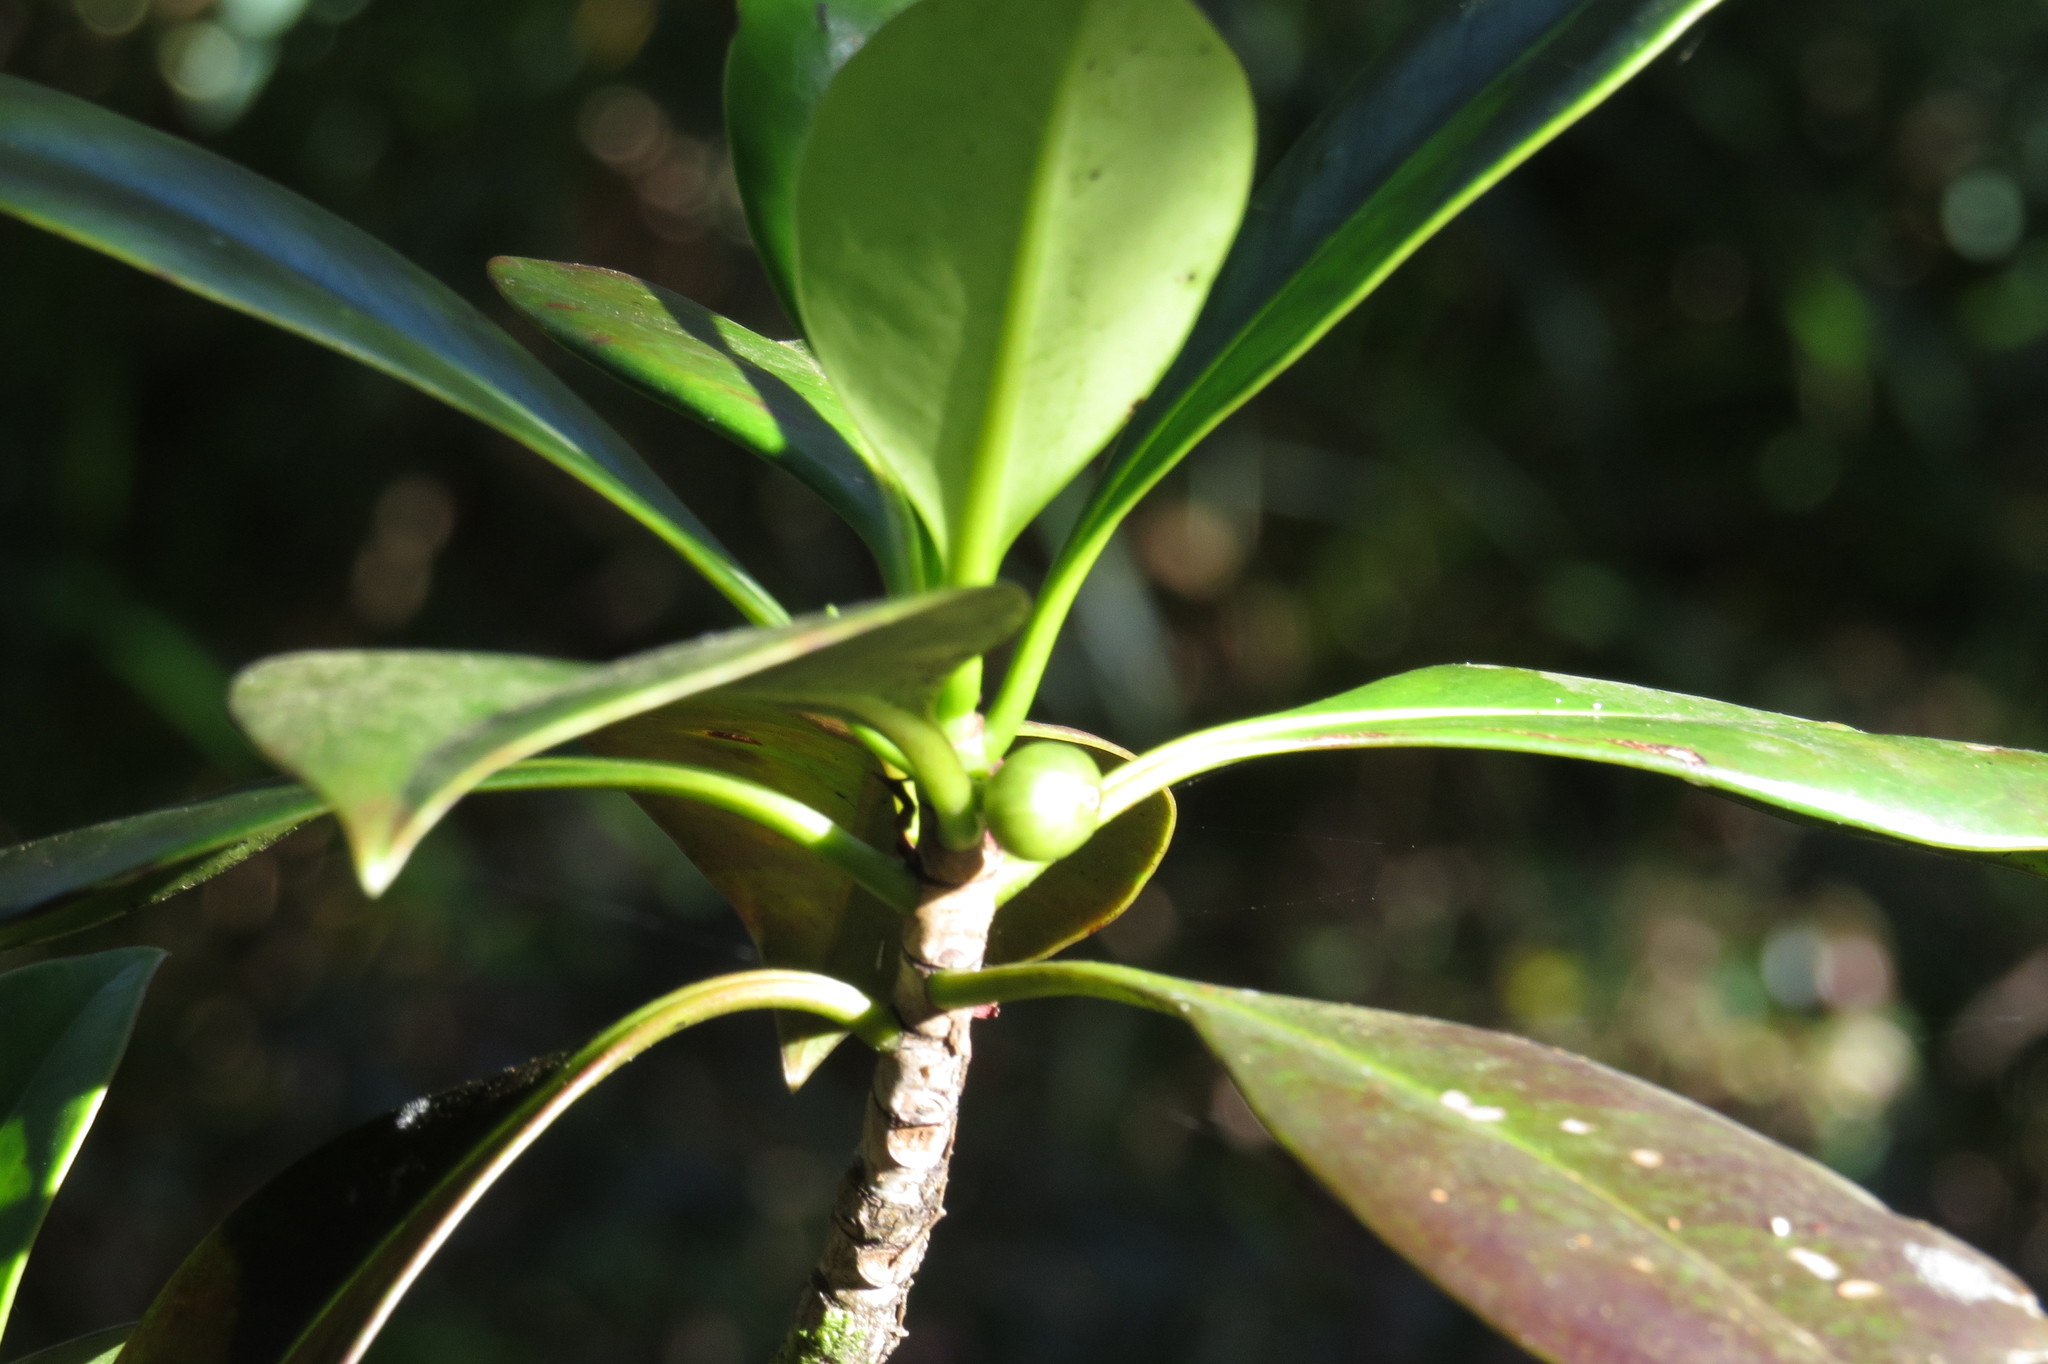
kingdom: Plantae
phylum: Tracheophyta
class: Magnoliopsida
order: Gentianales
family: Rubiaceae
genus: Timonius
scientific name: Timonius singularis
